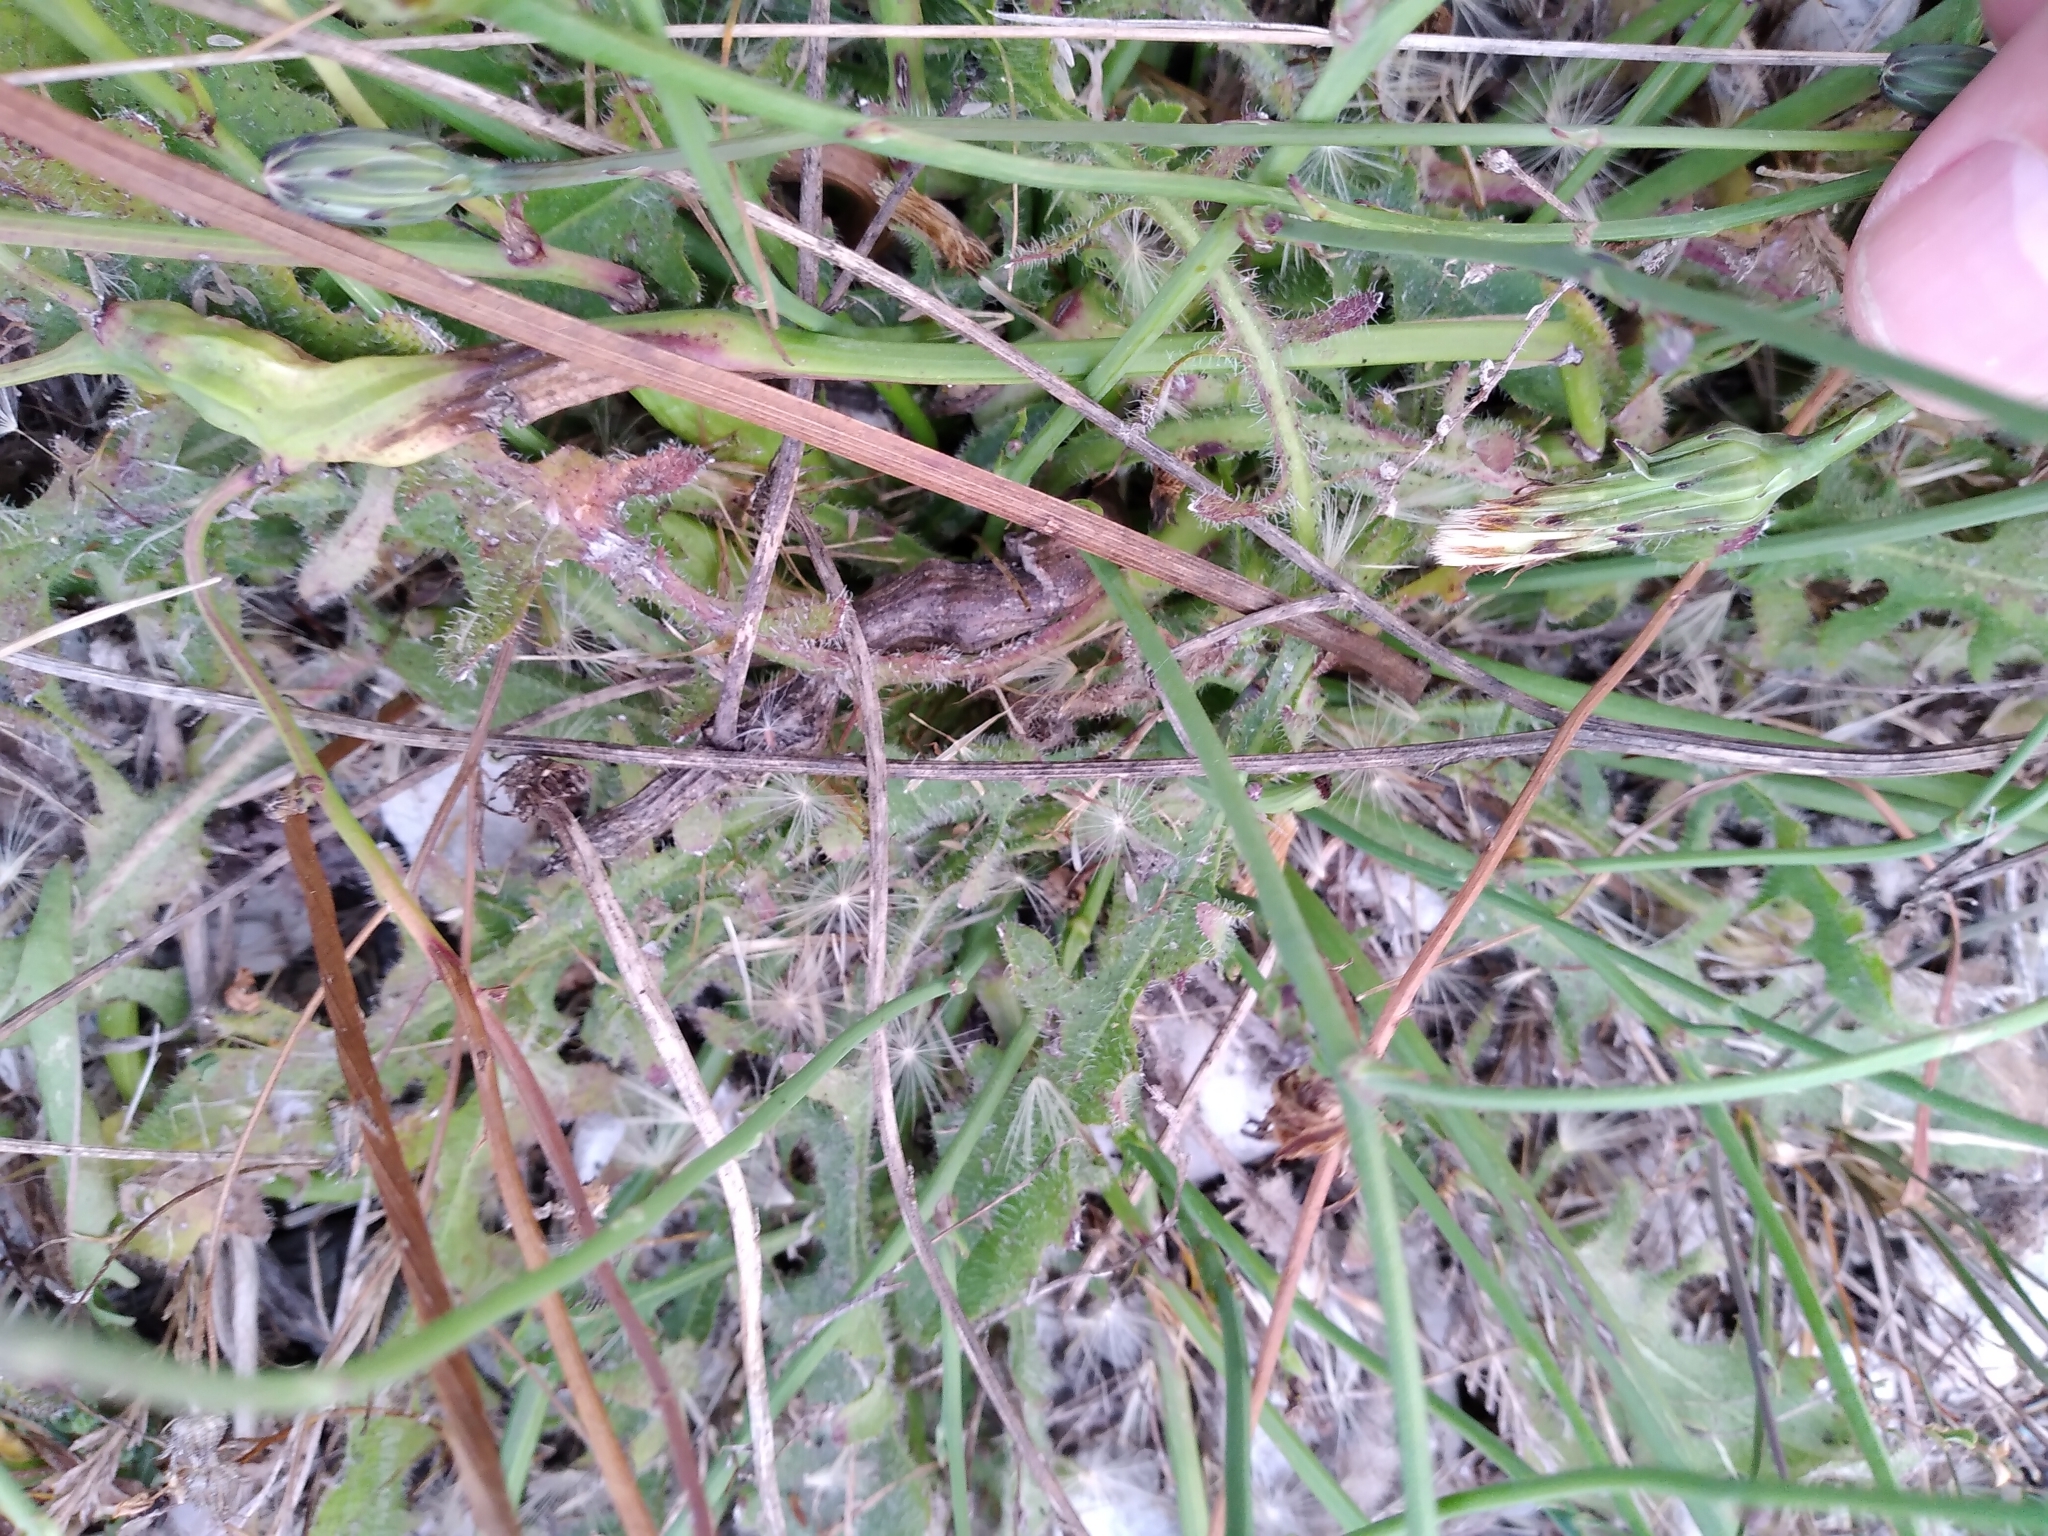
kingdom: Animalia
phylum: Arthropoda
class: Insecta
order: Hymenoptera
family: Cynipidae
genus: Phanacis
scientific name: Phanacis hypochoeridis
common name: Gall wasp
